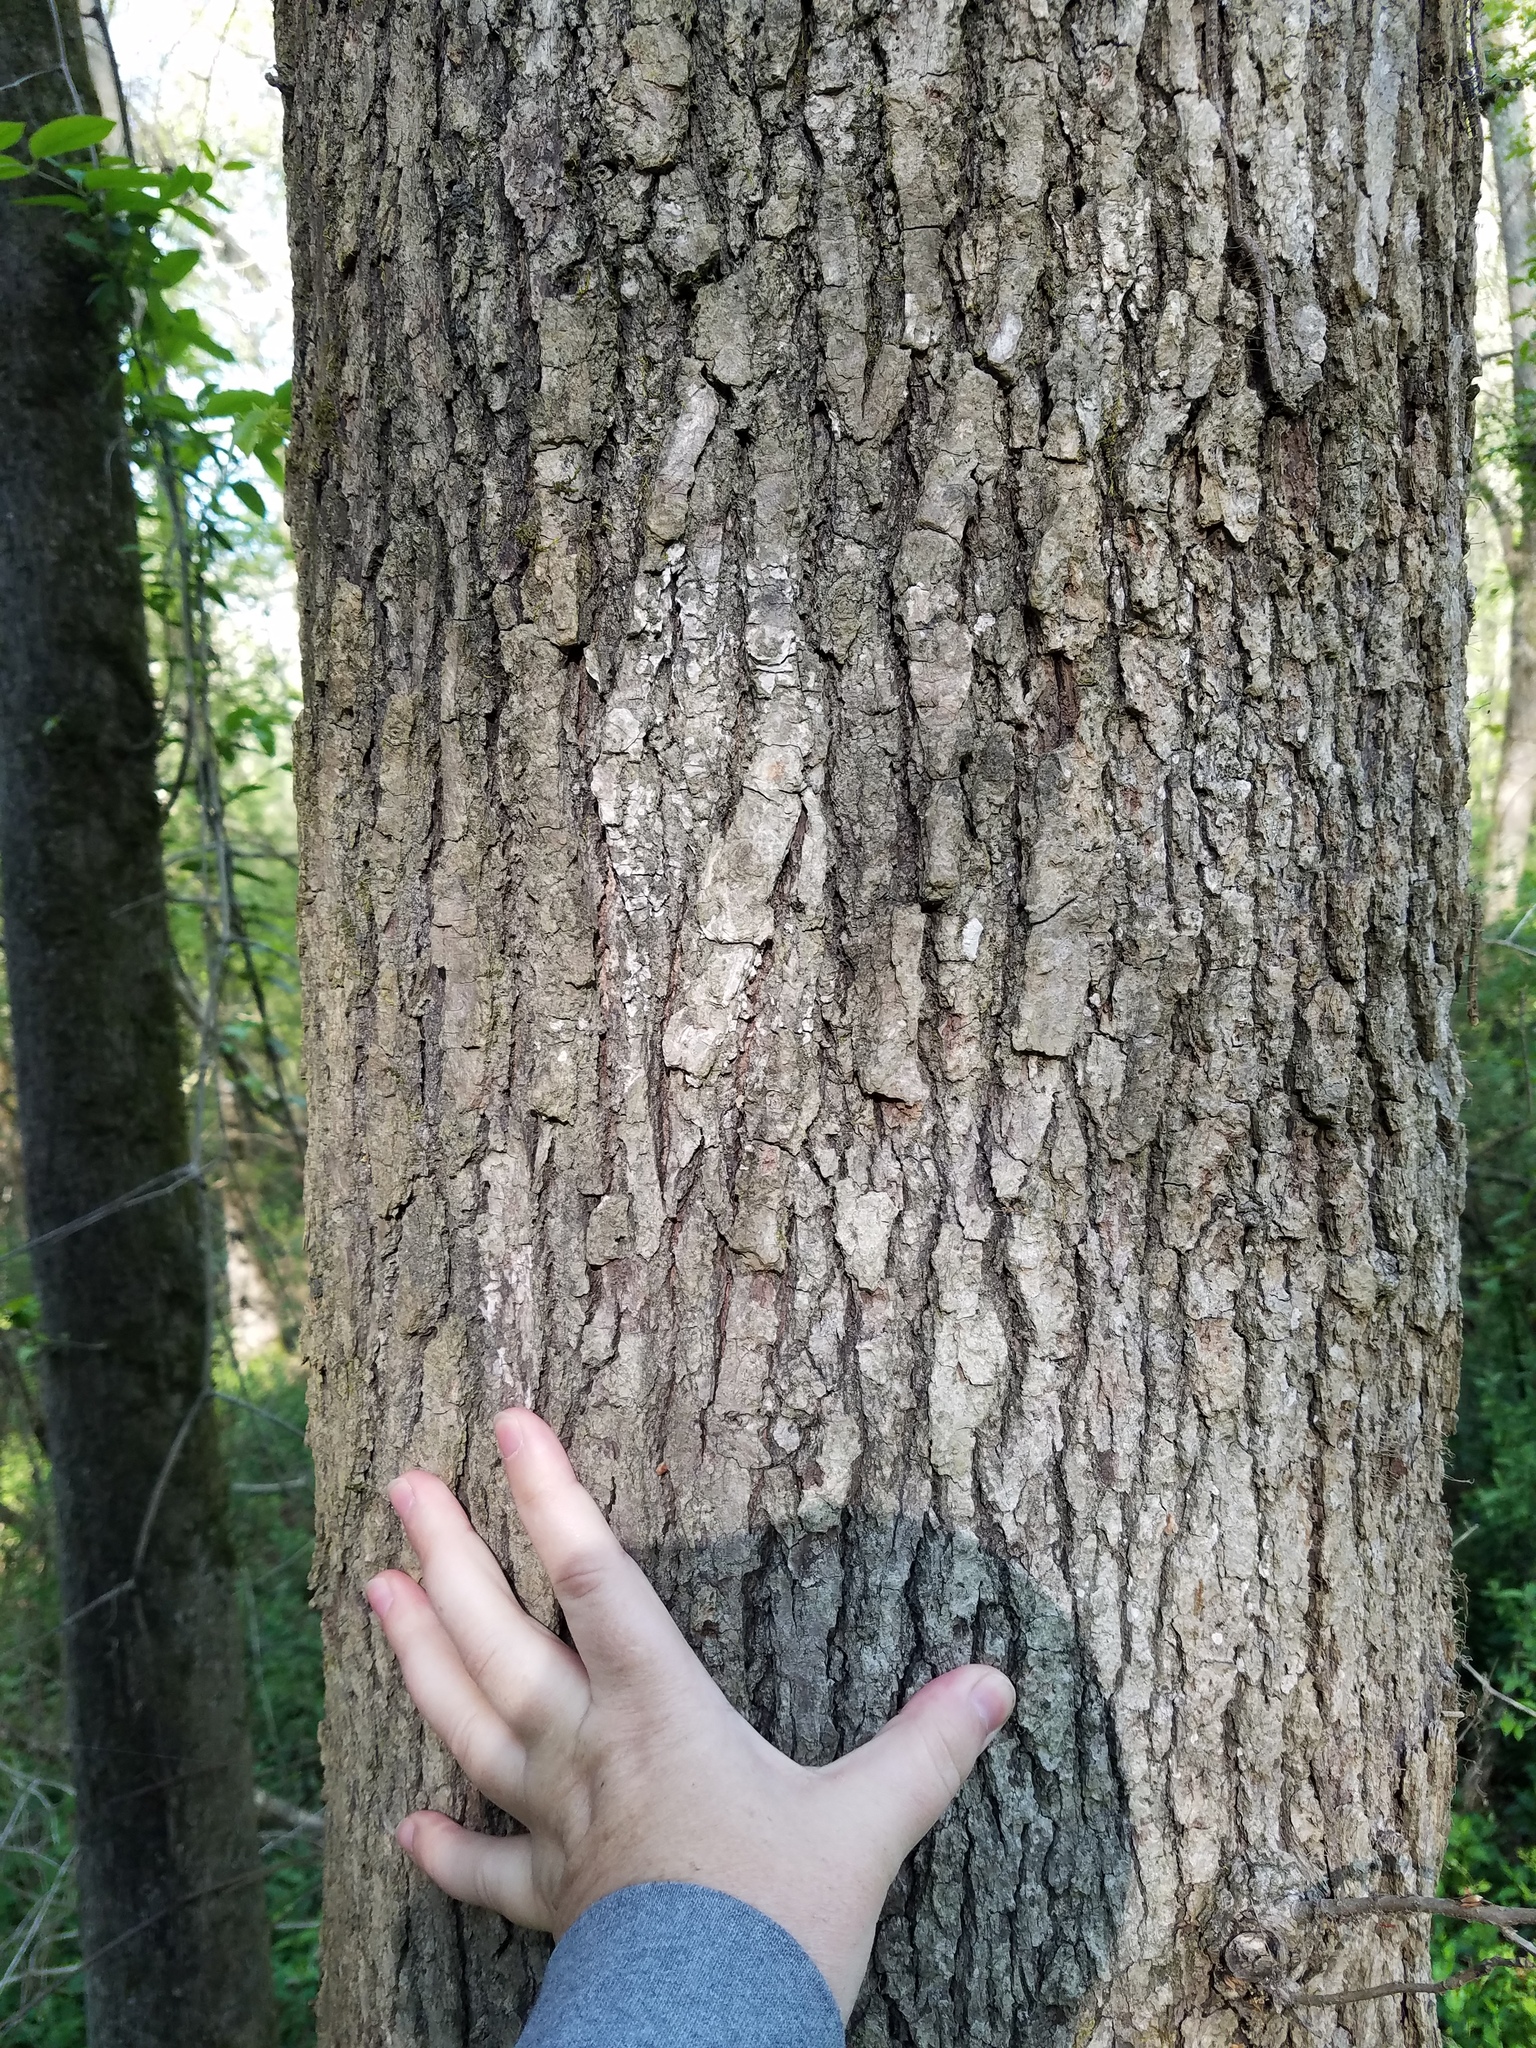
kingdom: Plantae
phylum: Tracheophyta
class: Magnoliopsida
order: Saxifragales
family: Altingiaceae
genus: Liquidambar
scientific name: Liquidambar styraciflua
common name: Sweet gum
